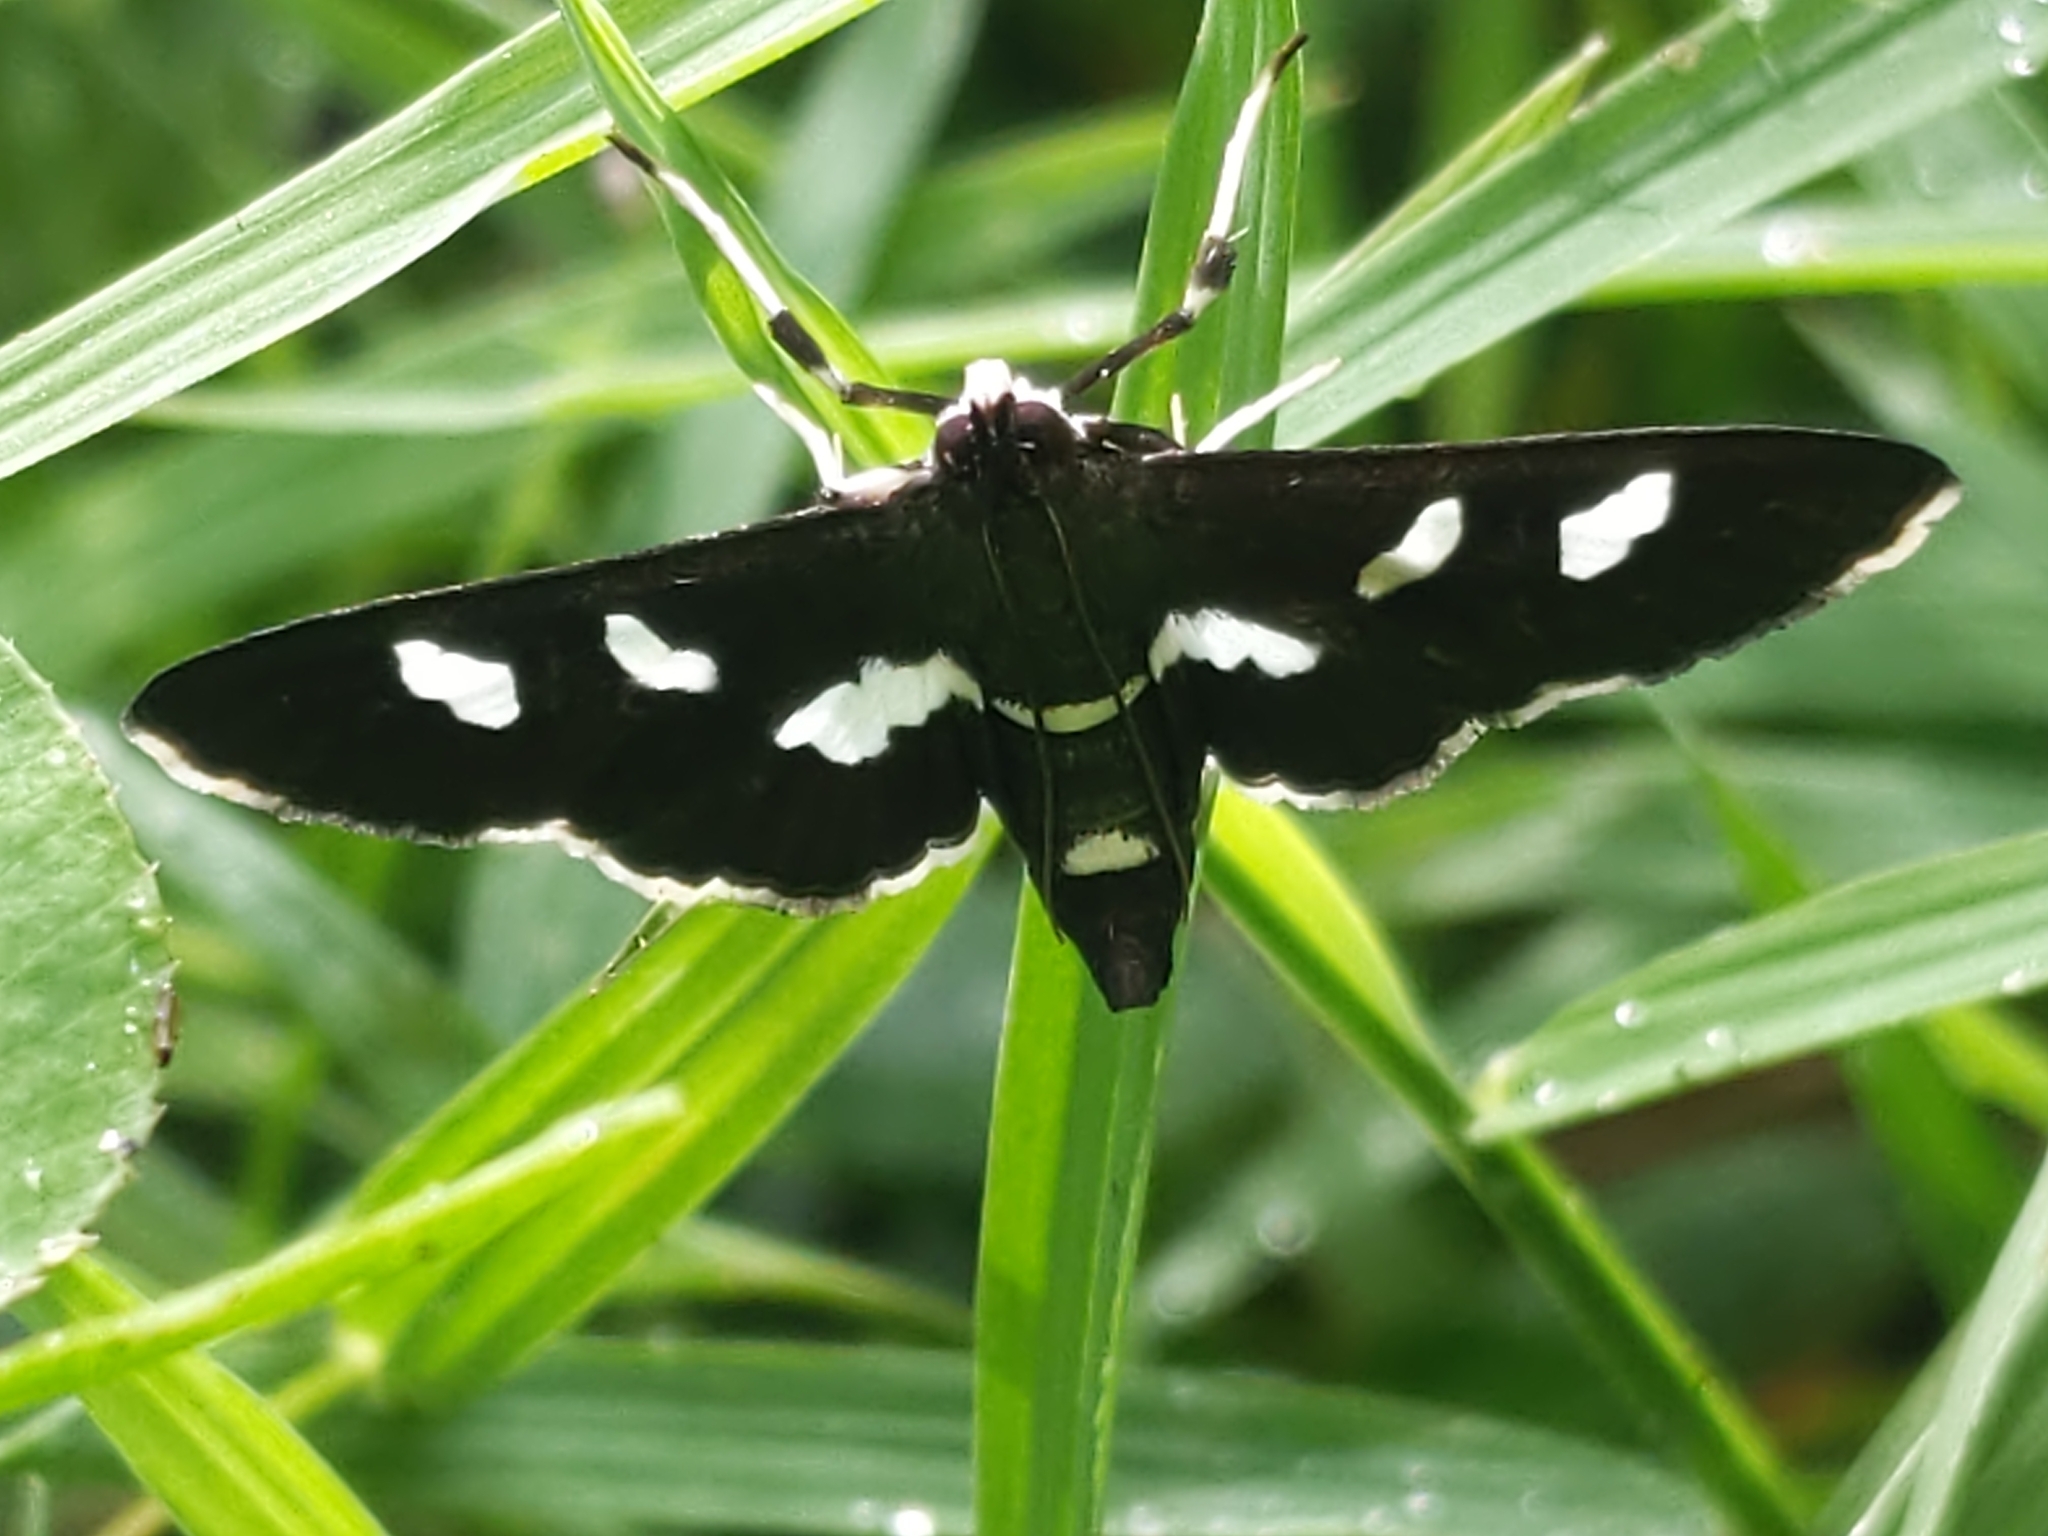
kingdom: Animalia
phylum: Arthropoda
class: Insecta
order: Lepidoptera
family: Crambidae
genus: Desmia
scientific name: Desmia
